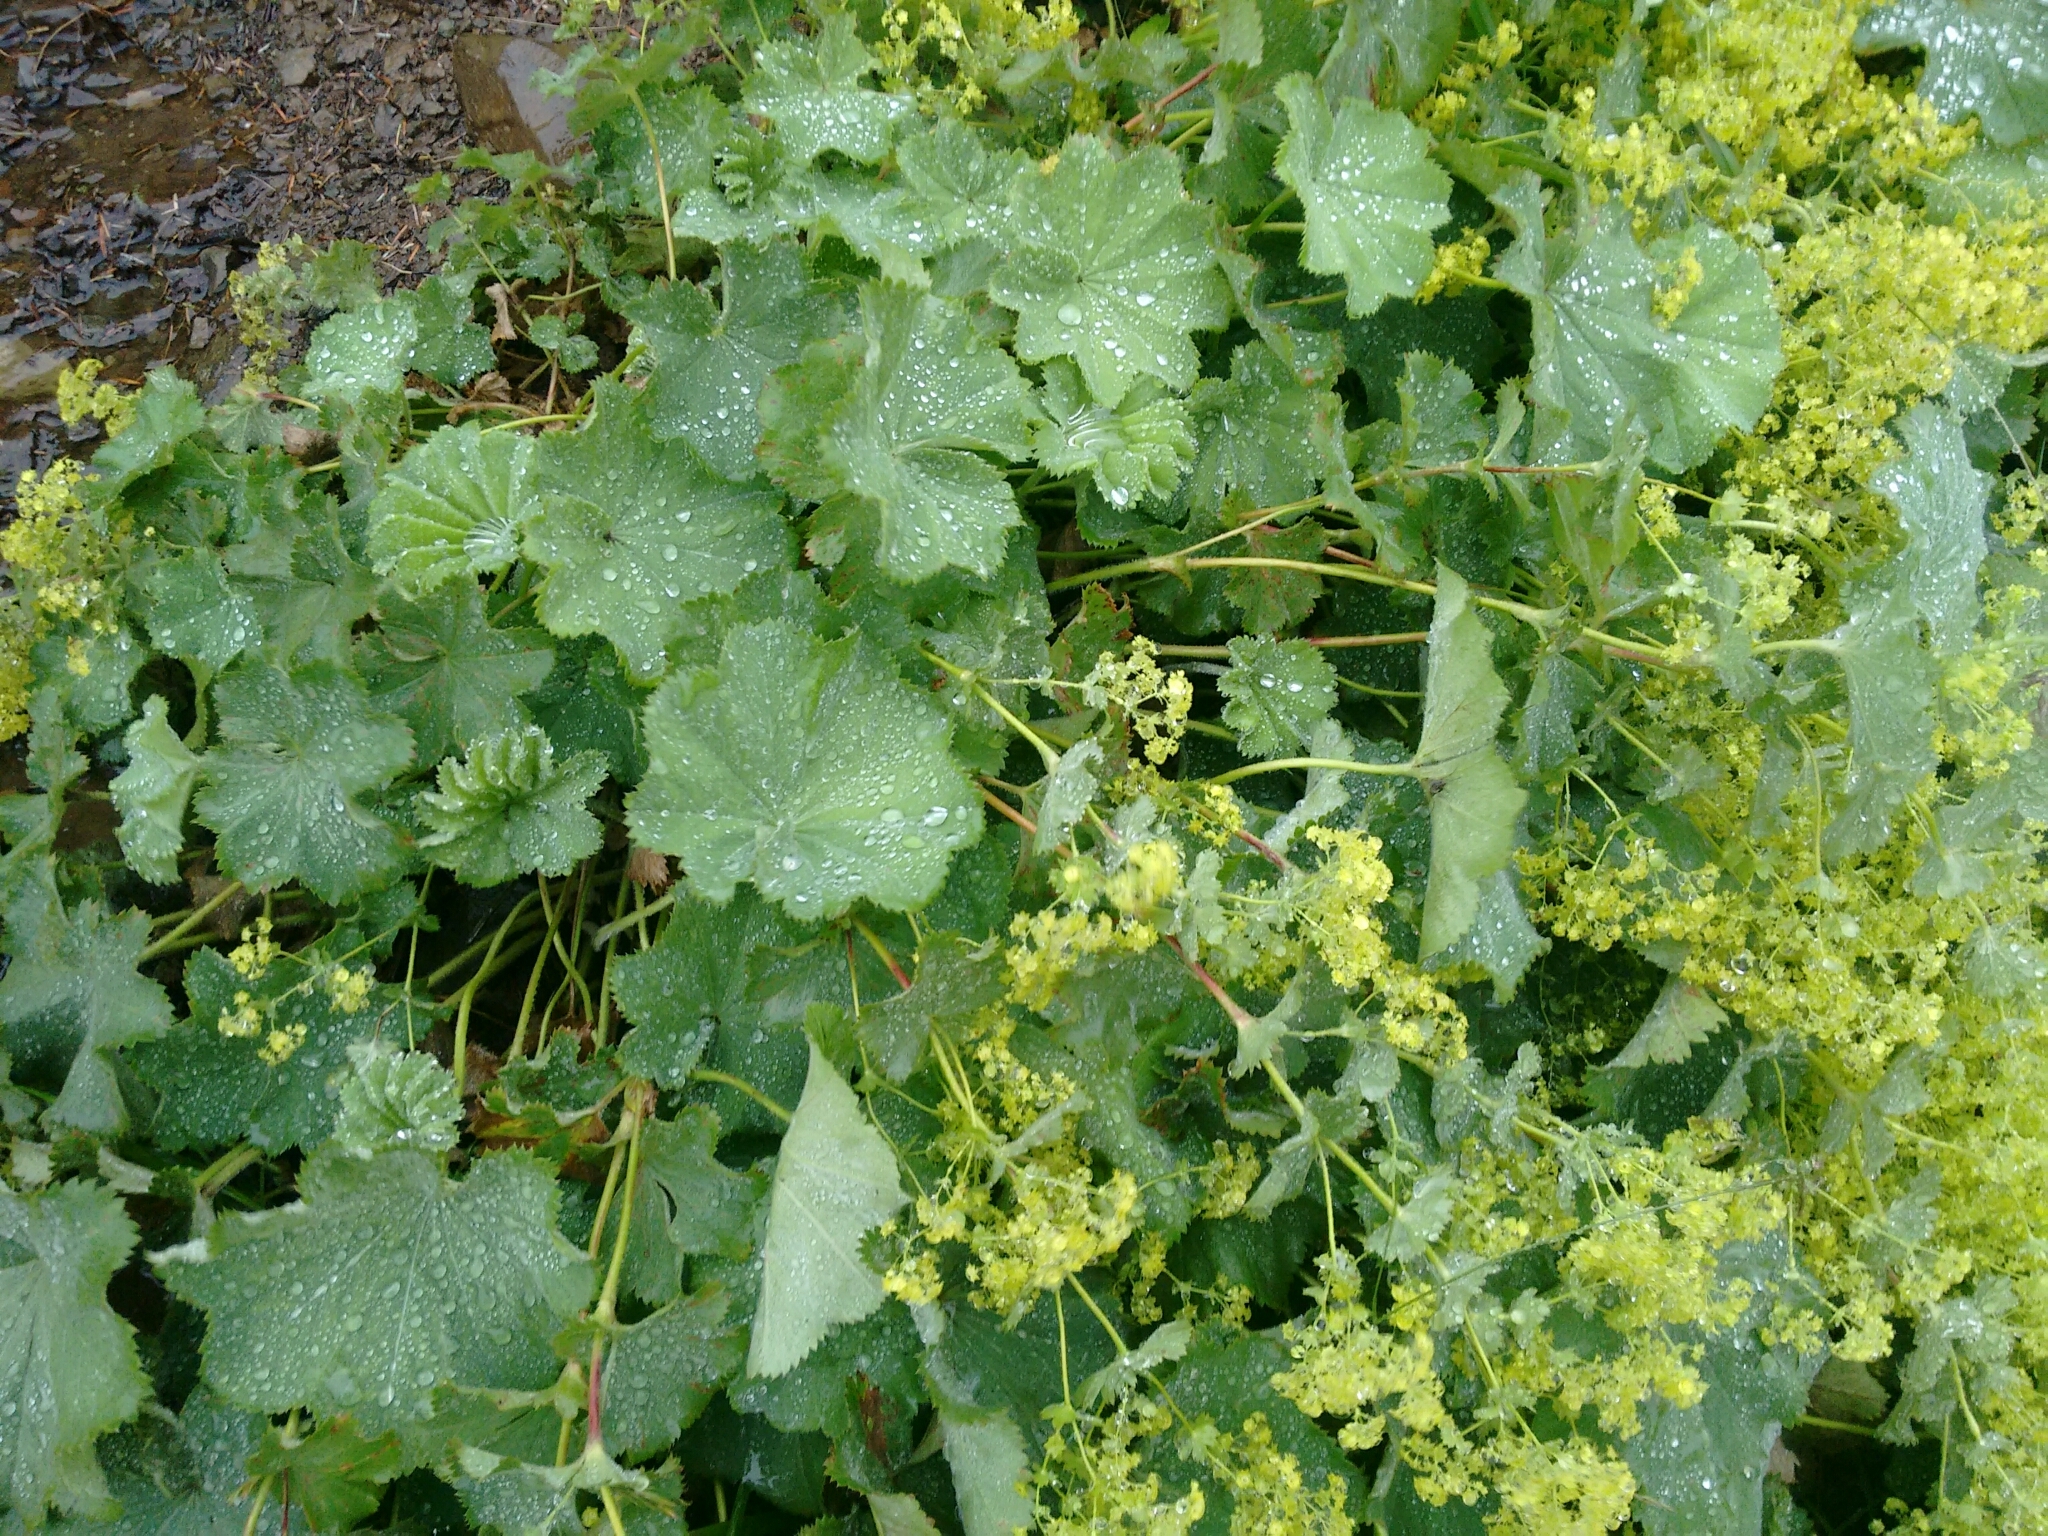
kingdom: Plantae
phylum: Tracheophyta
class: Magnoliopsida
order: Rosales
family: Rosaceae
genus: Alchemilla
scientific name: Alchemilla vulgaris
